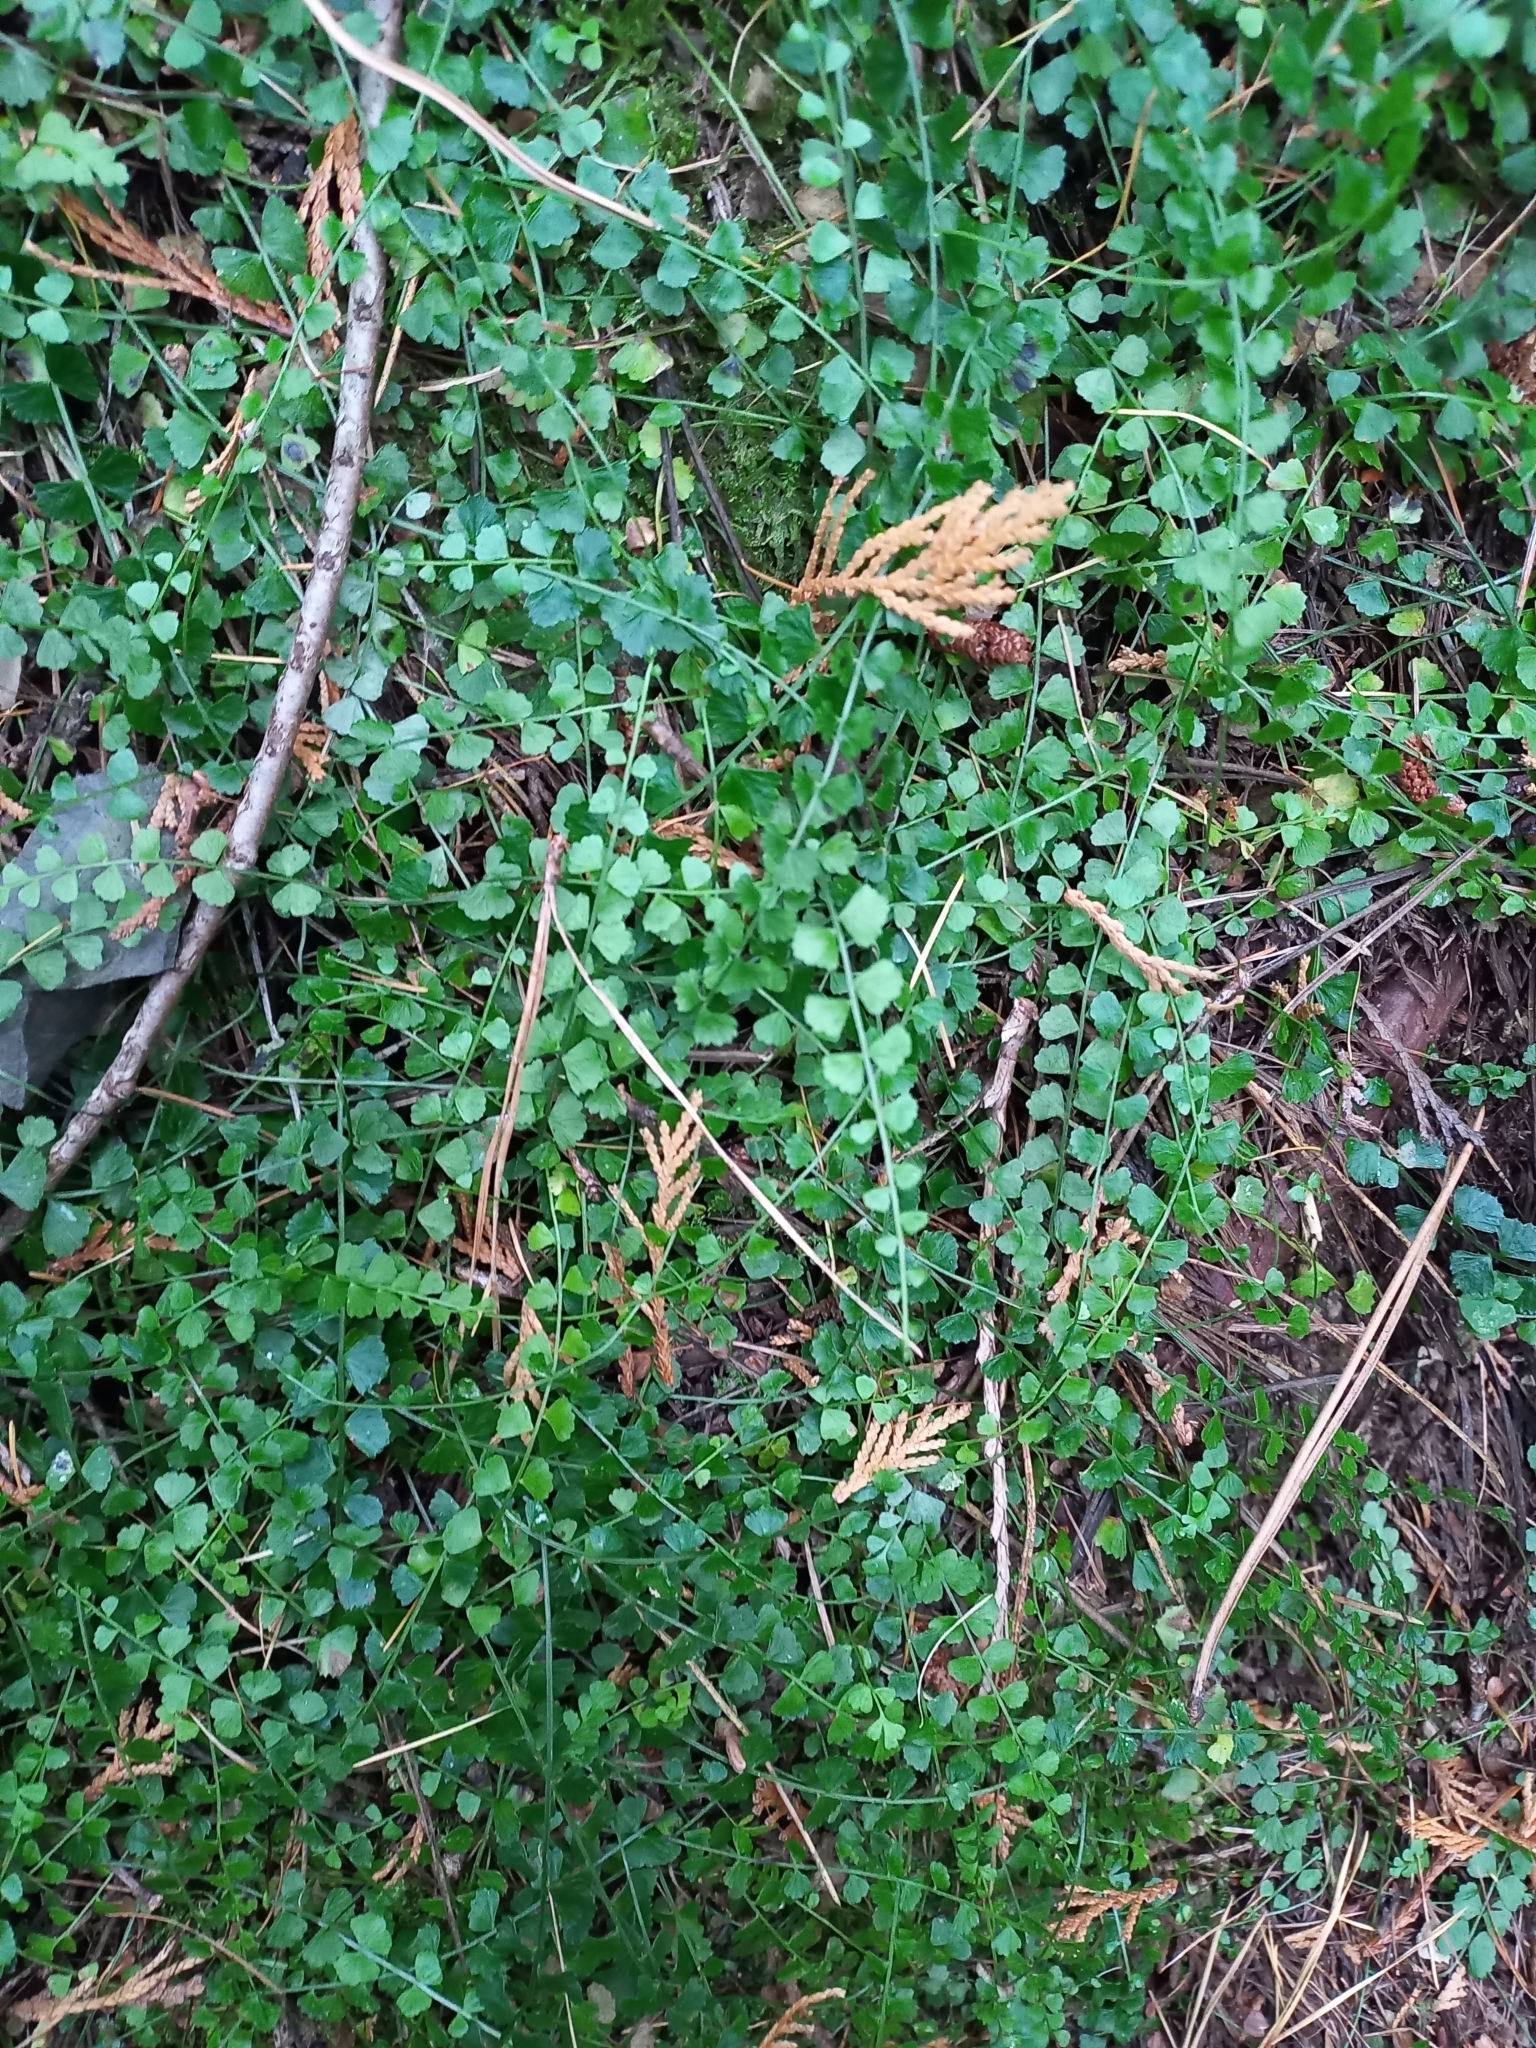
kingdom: Plantae
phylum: Tracheophyta
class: Polypodiopsida
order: Polypodiales
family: Aspleniaceae
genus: Asplenium
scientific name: Asplenium flabellifolium
